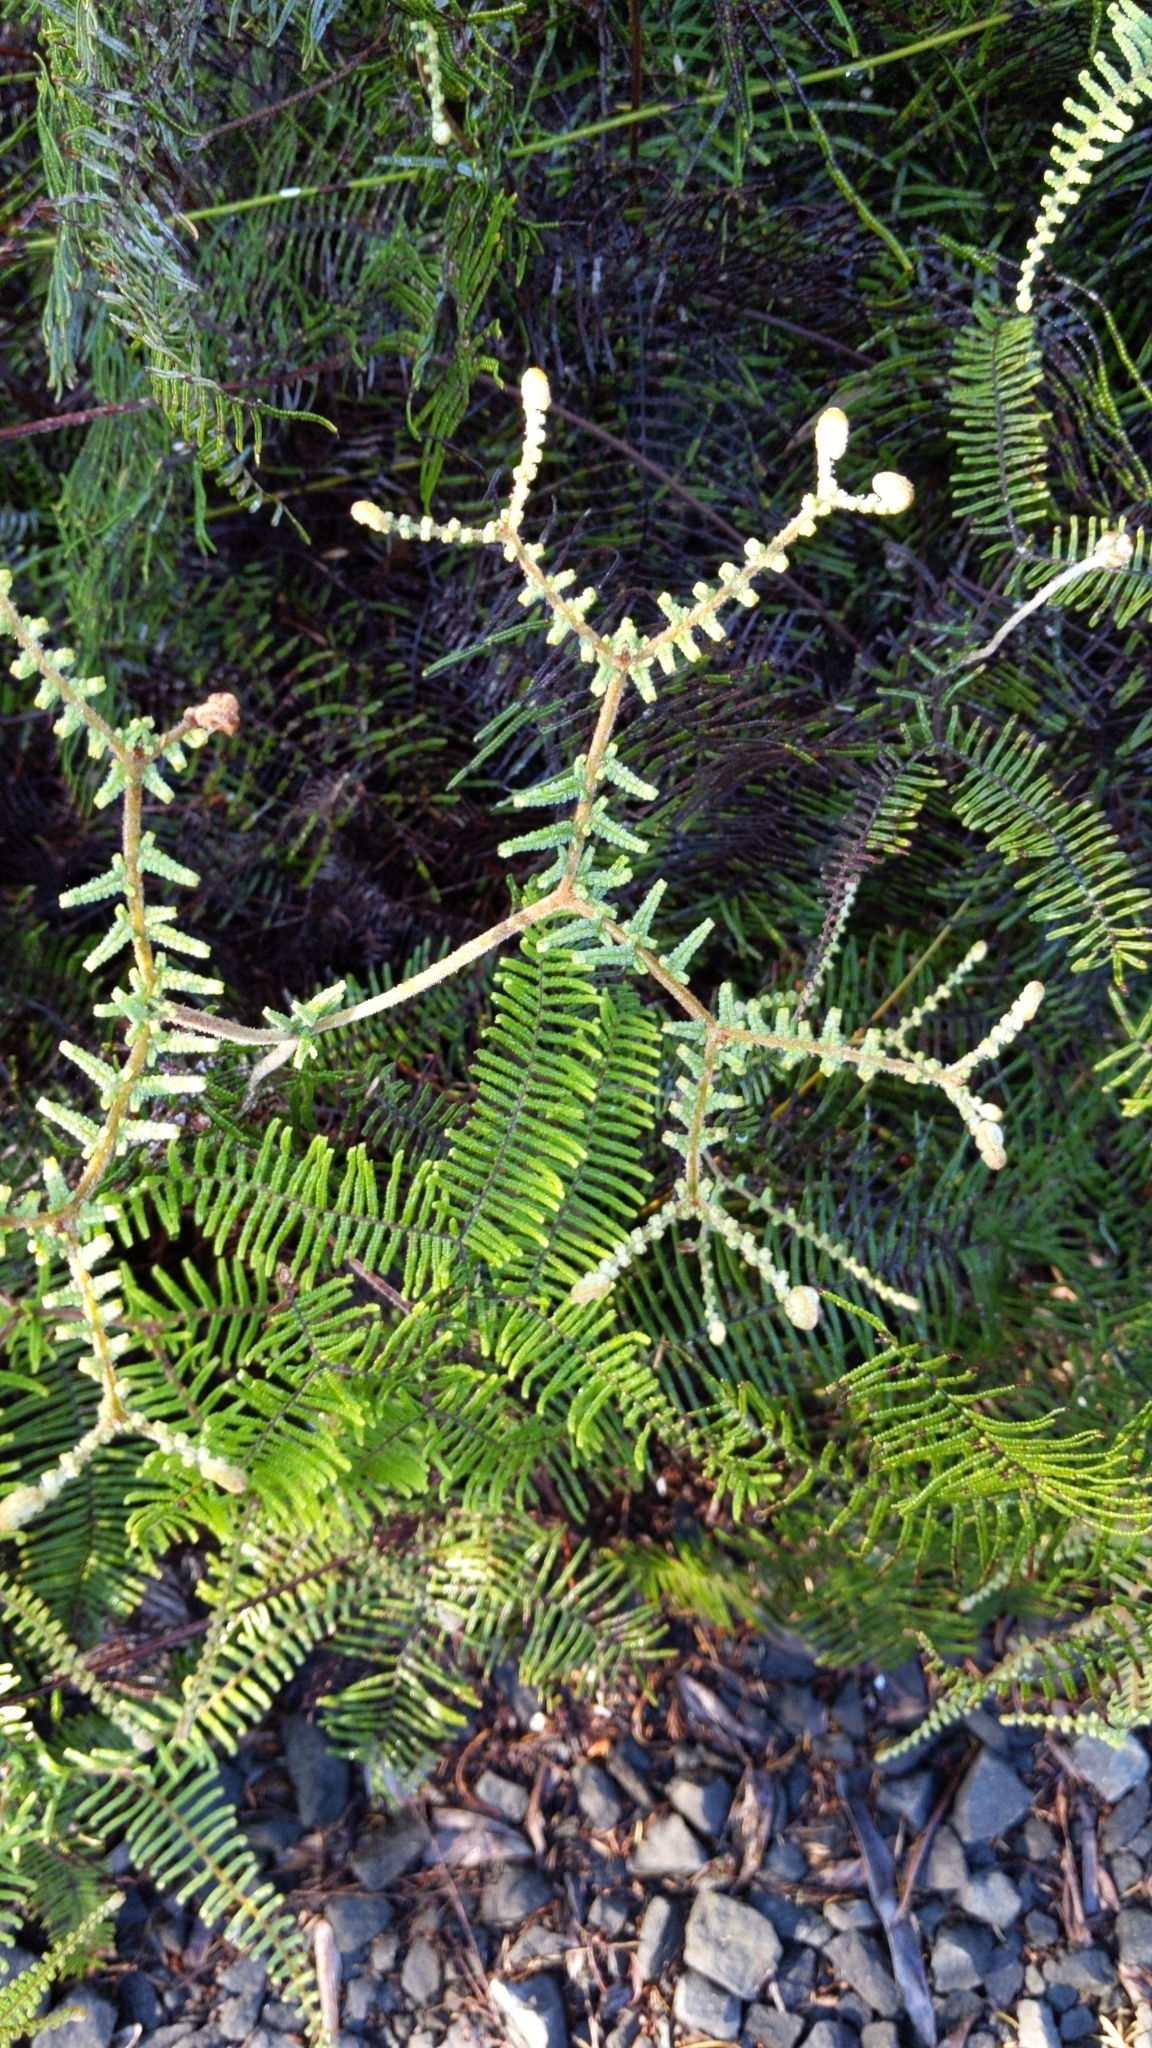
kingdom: Plantae
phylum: Tracheophyta
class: Polypodiopsida
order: Gleicheniales
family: Gleicheniaceae
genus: Gleichenia
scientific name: Gleichenia
